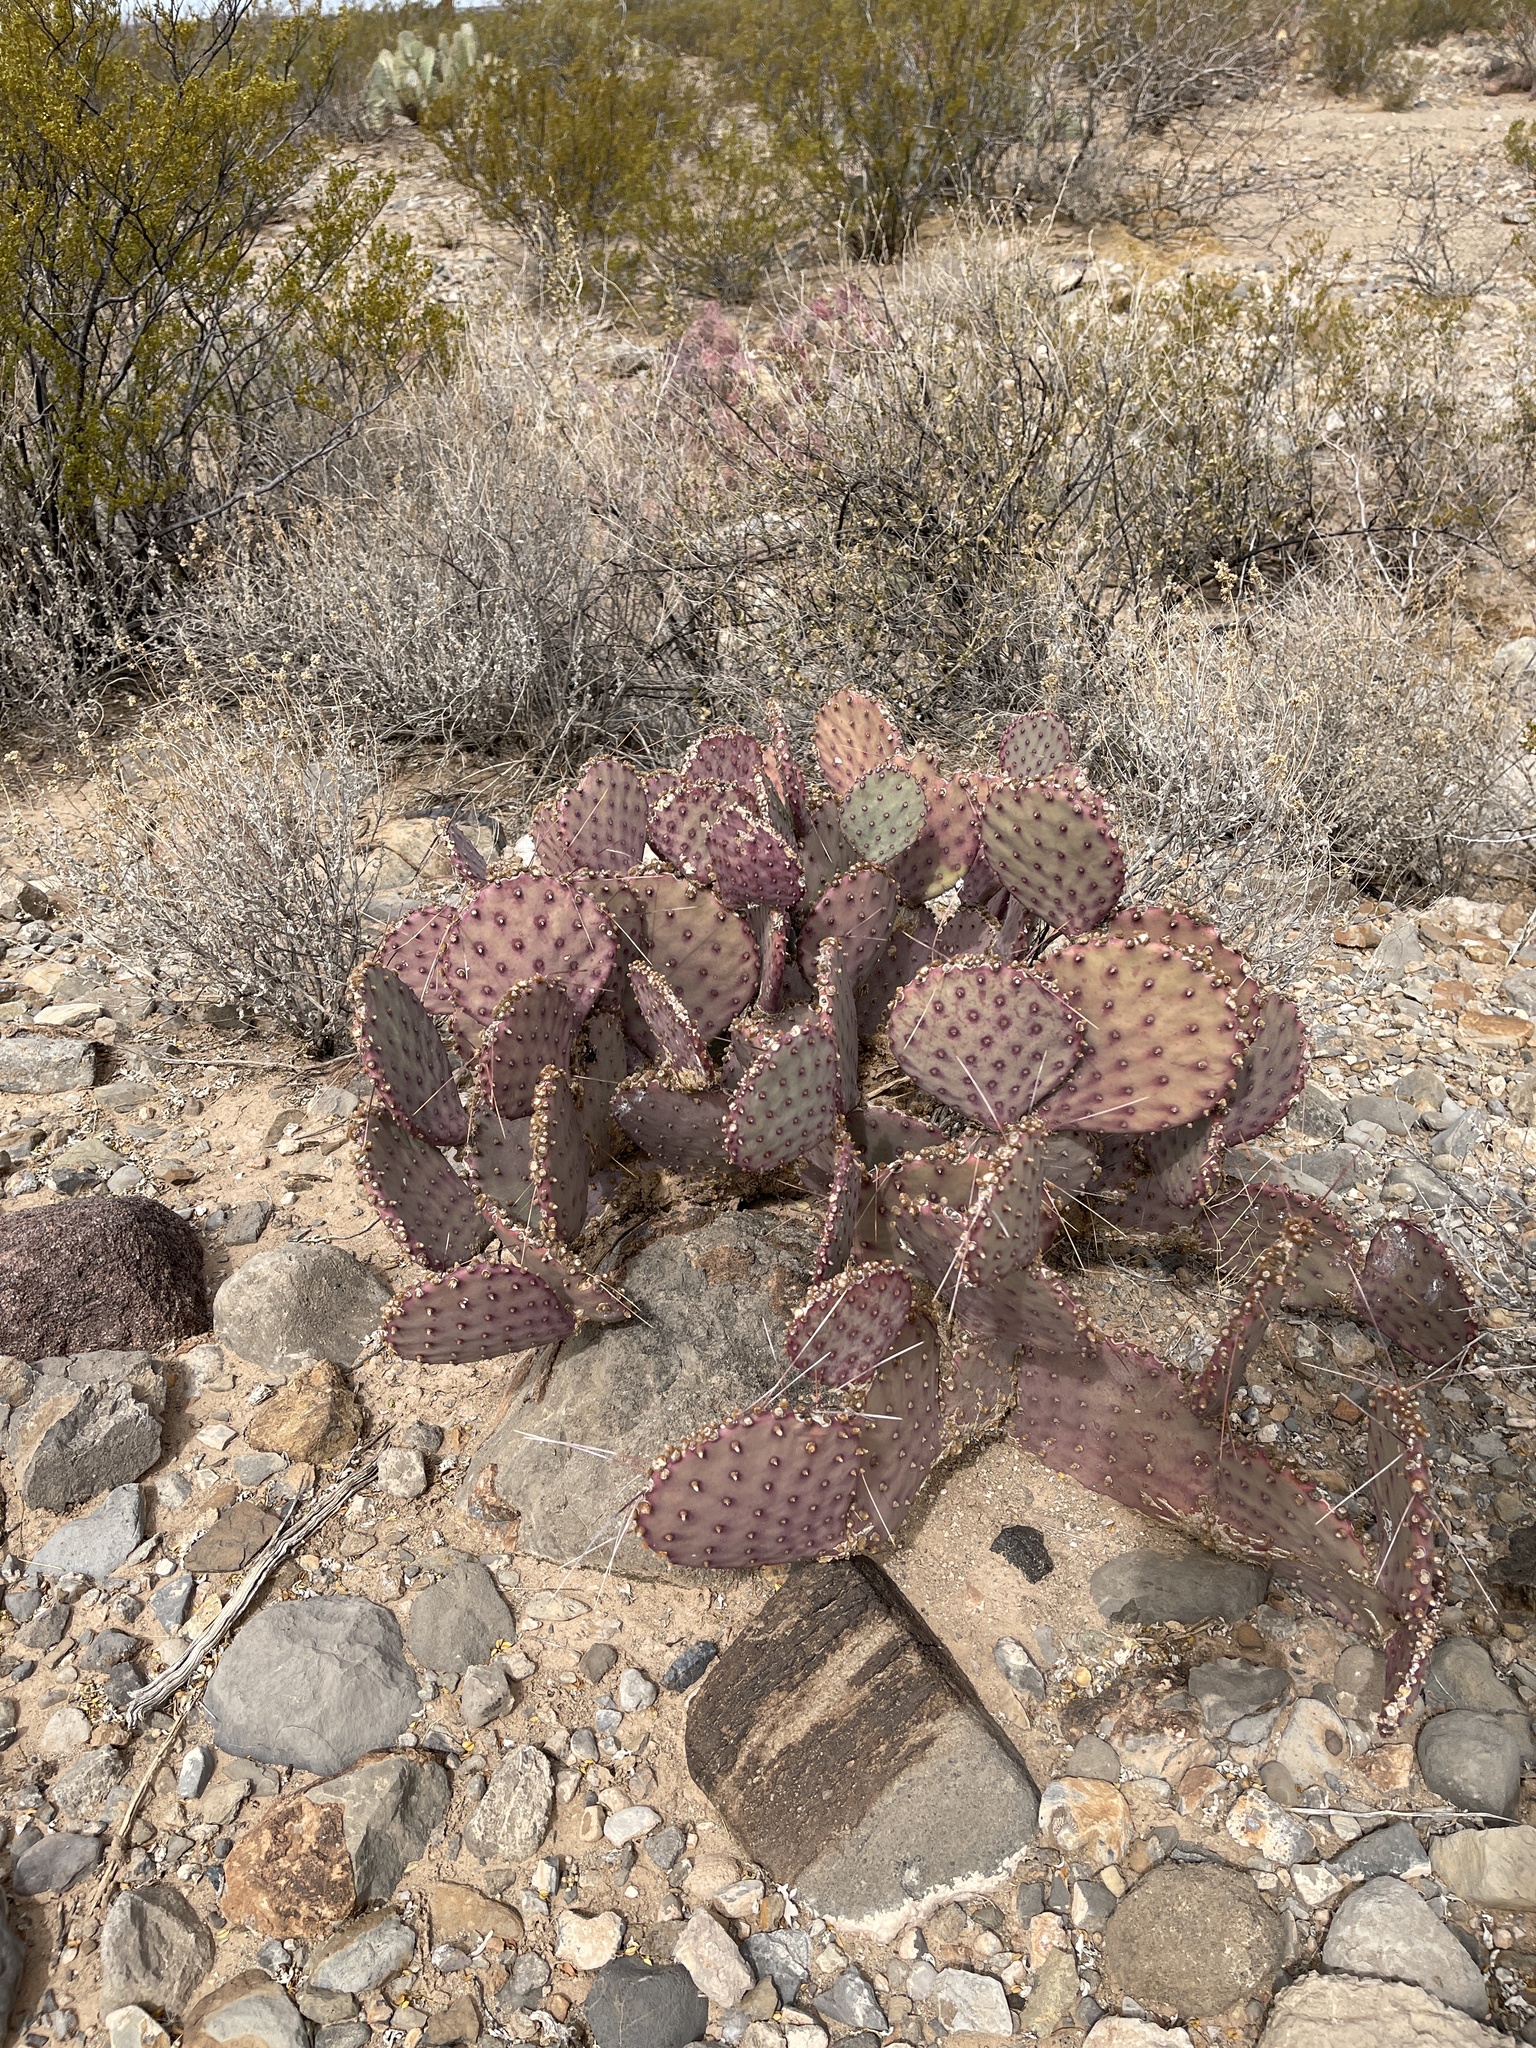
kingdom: Plantae
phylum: Tracheophyta
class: Magnoliopsida
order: Caryophyllales
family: Cactaceae
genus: Opuntia
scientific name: Opuntia macrocentra
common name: Purple prickly-pear
